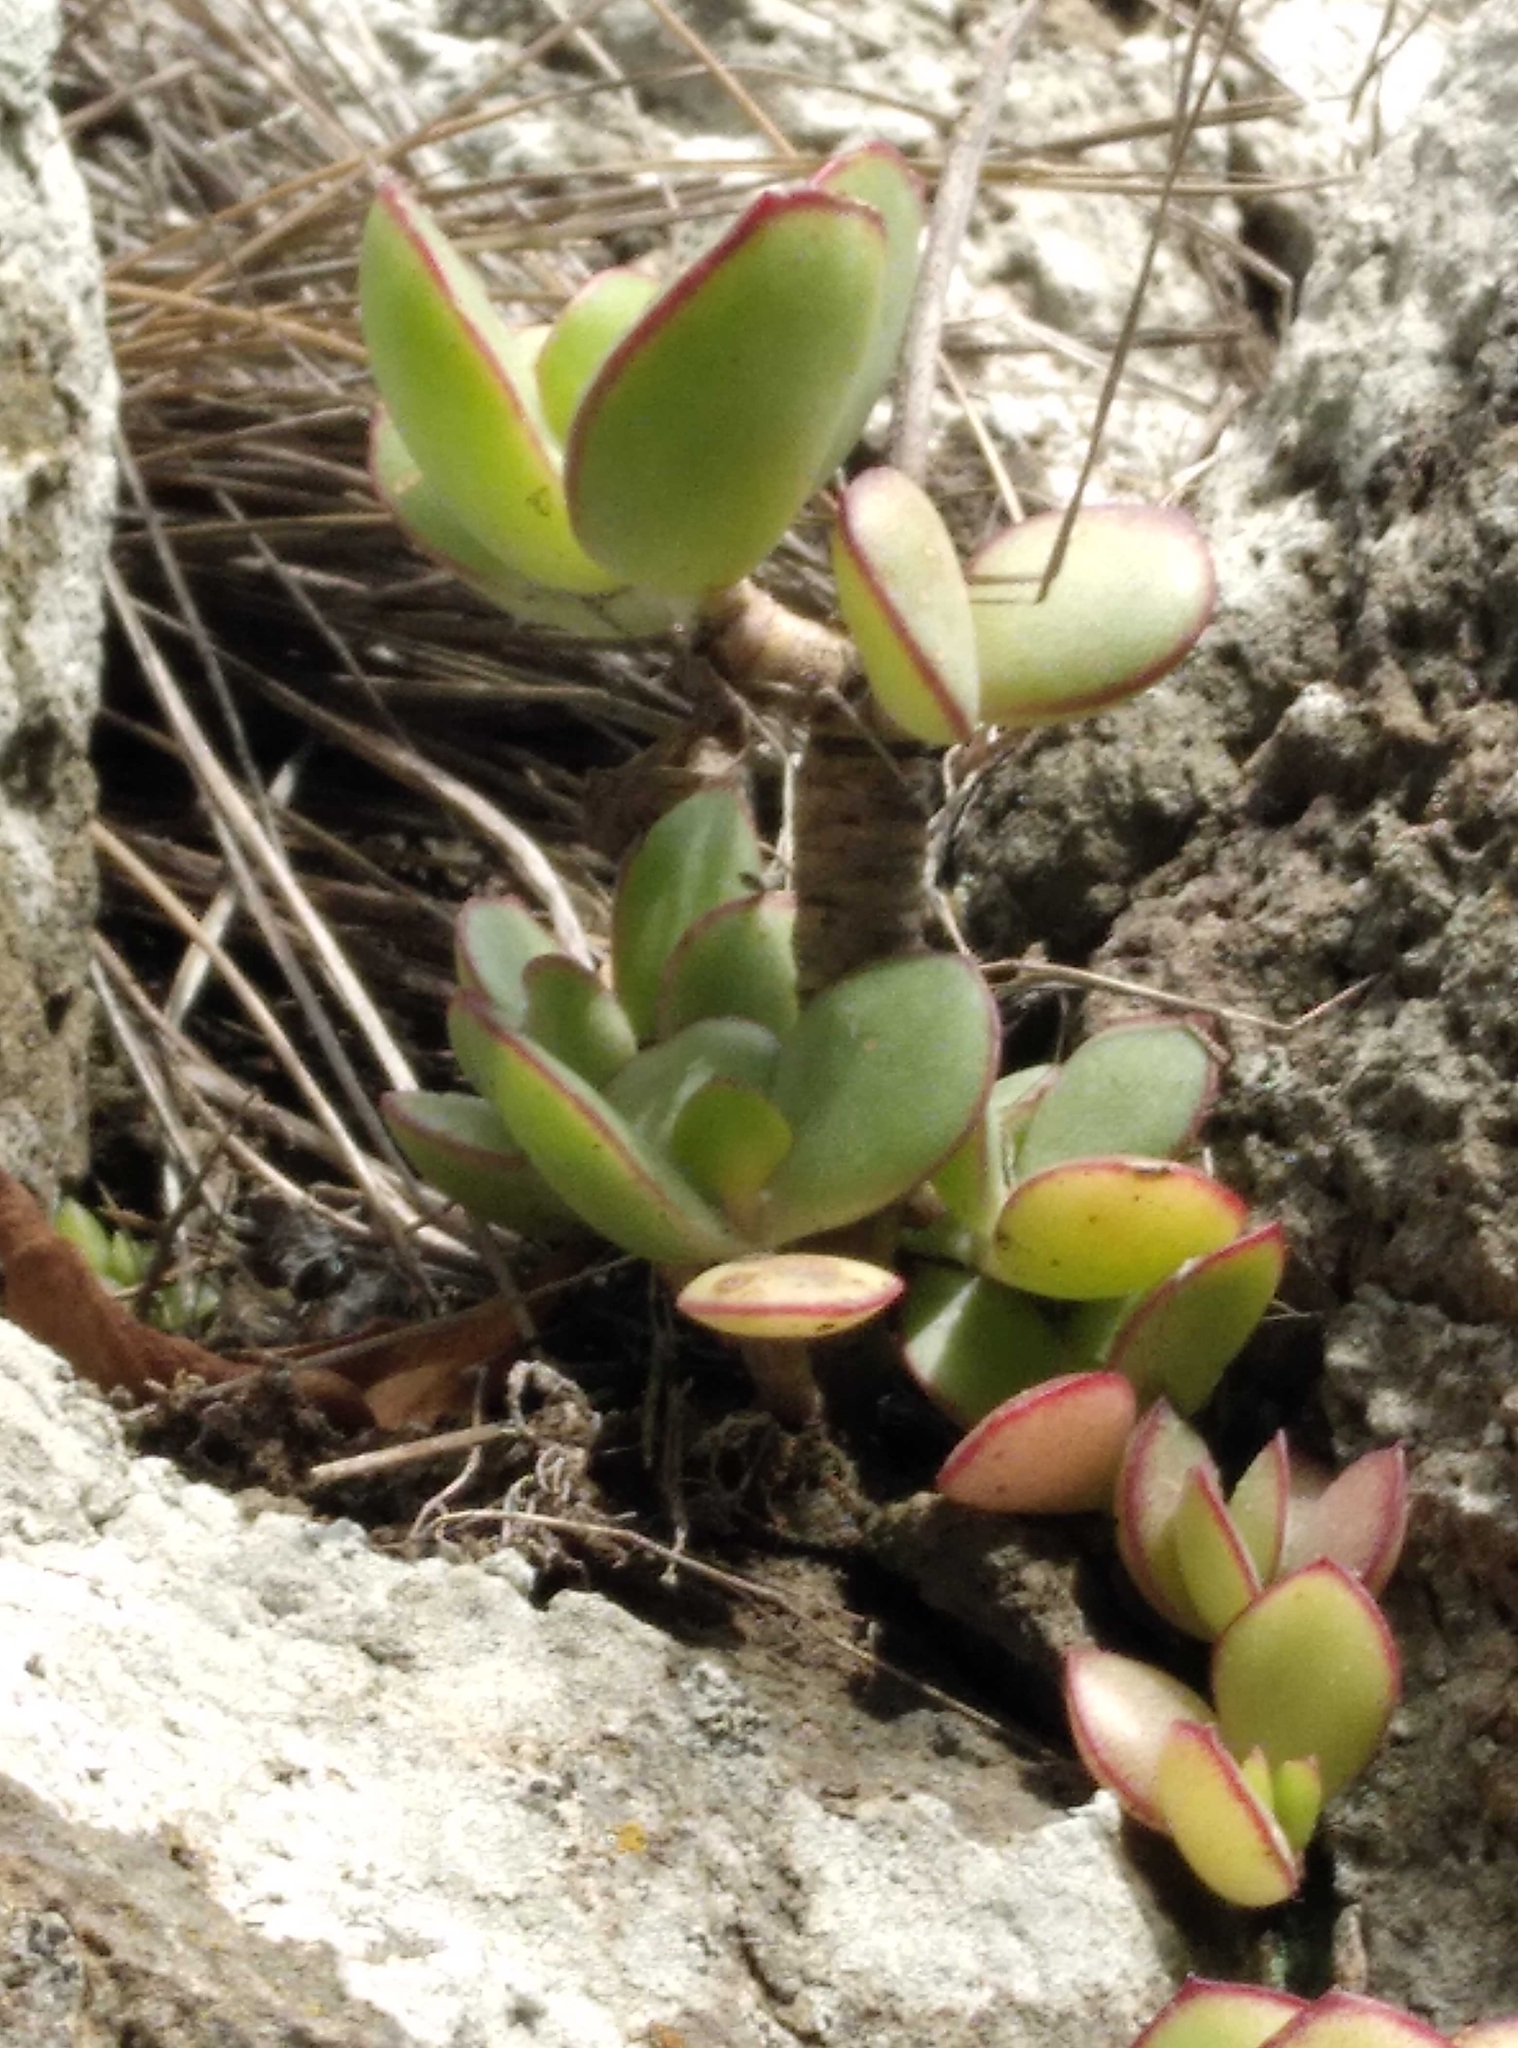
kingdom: Plantae
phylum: Tracheophyta
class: Magnoliopsida
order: Saxifragales
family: Crassulaceae
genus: Cotyledon
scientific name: Cotyledon orbiculata
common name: Pig's ear
